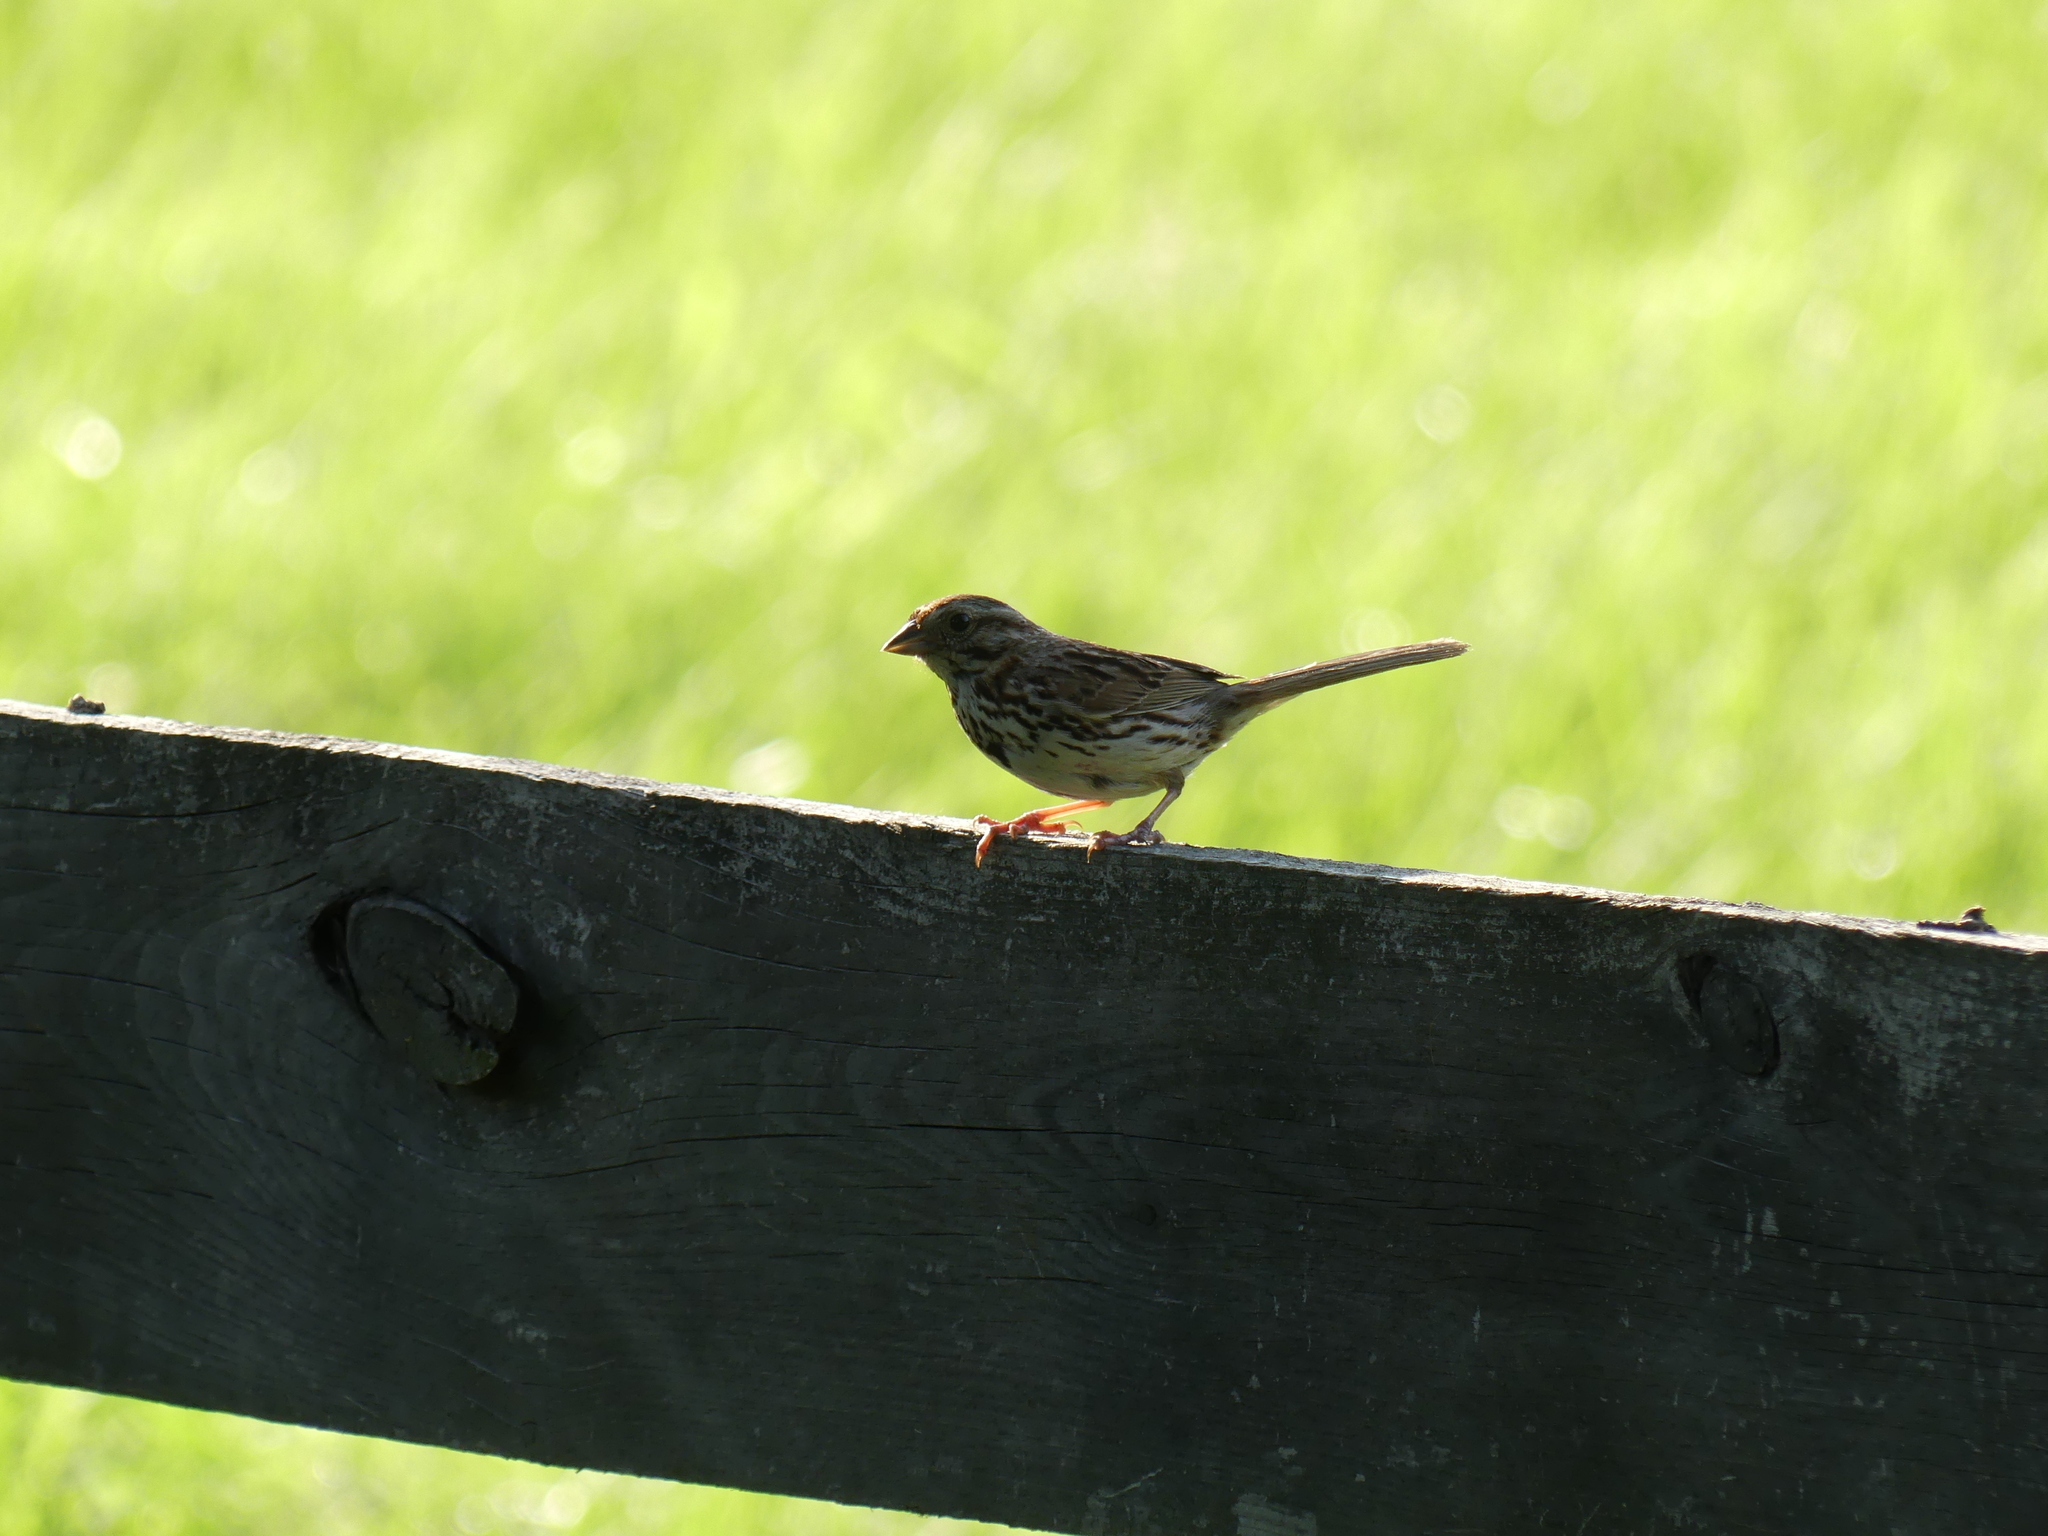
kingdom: Animalia
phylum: Chordata
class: Aves
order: Passeriformes
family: Passerellidae
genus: Melospiza
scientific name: Melospiza melodia
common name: Song sparrow
